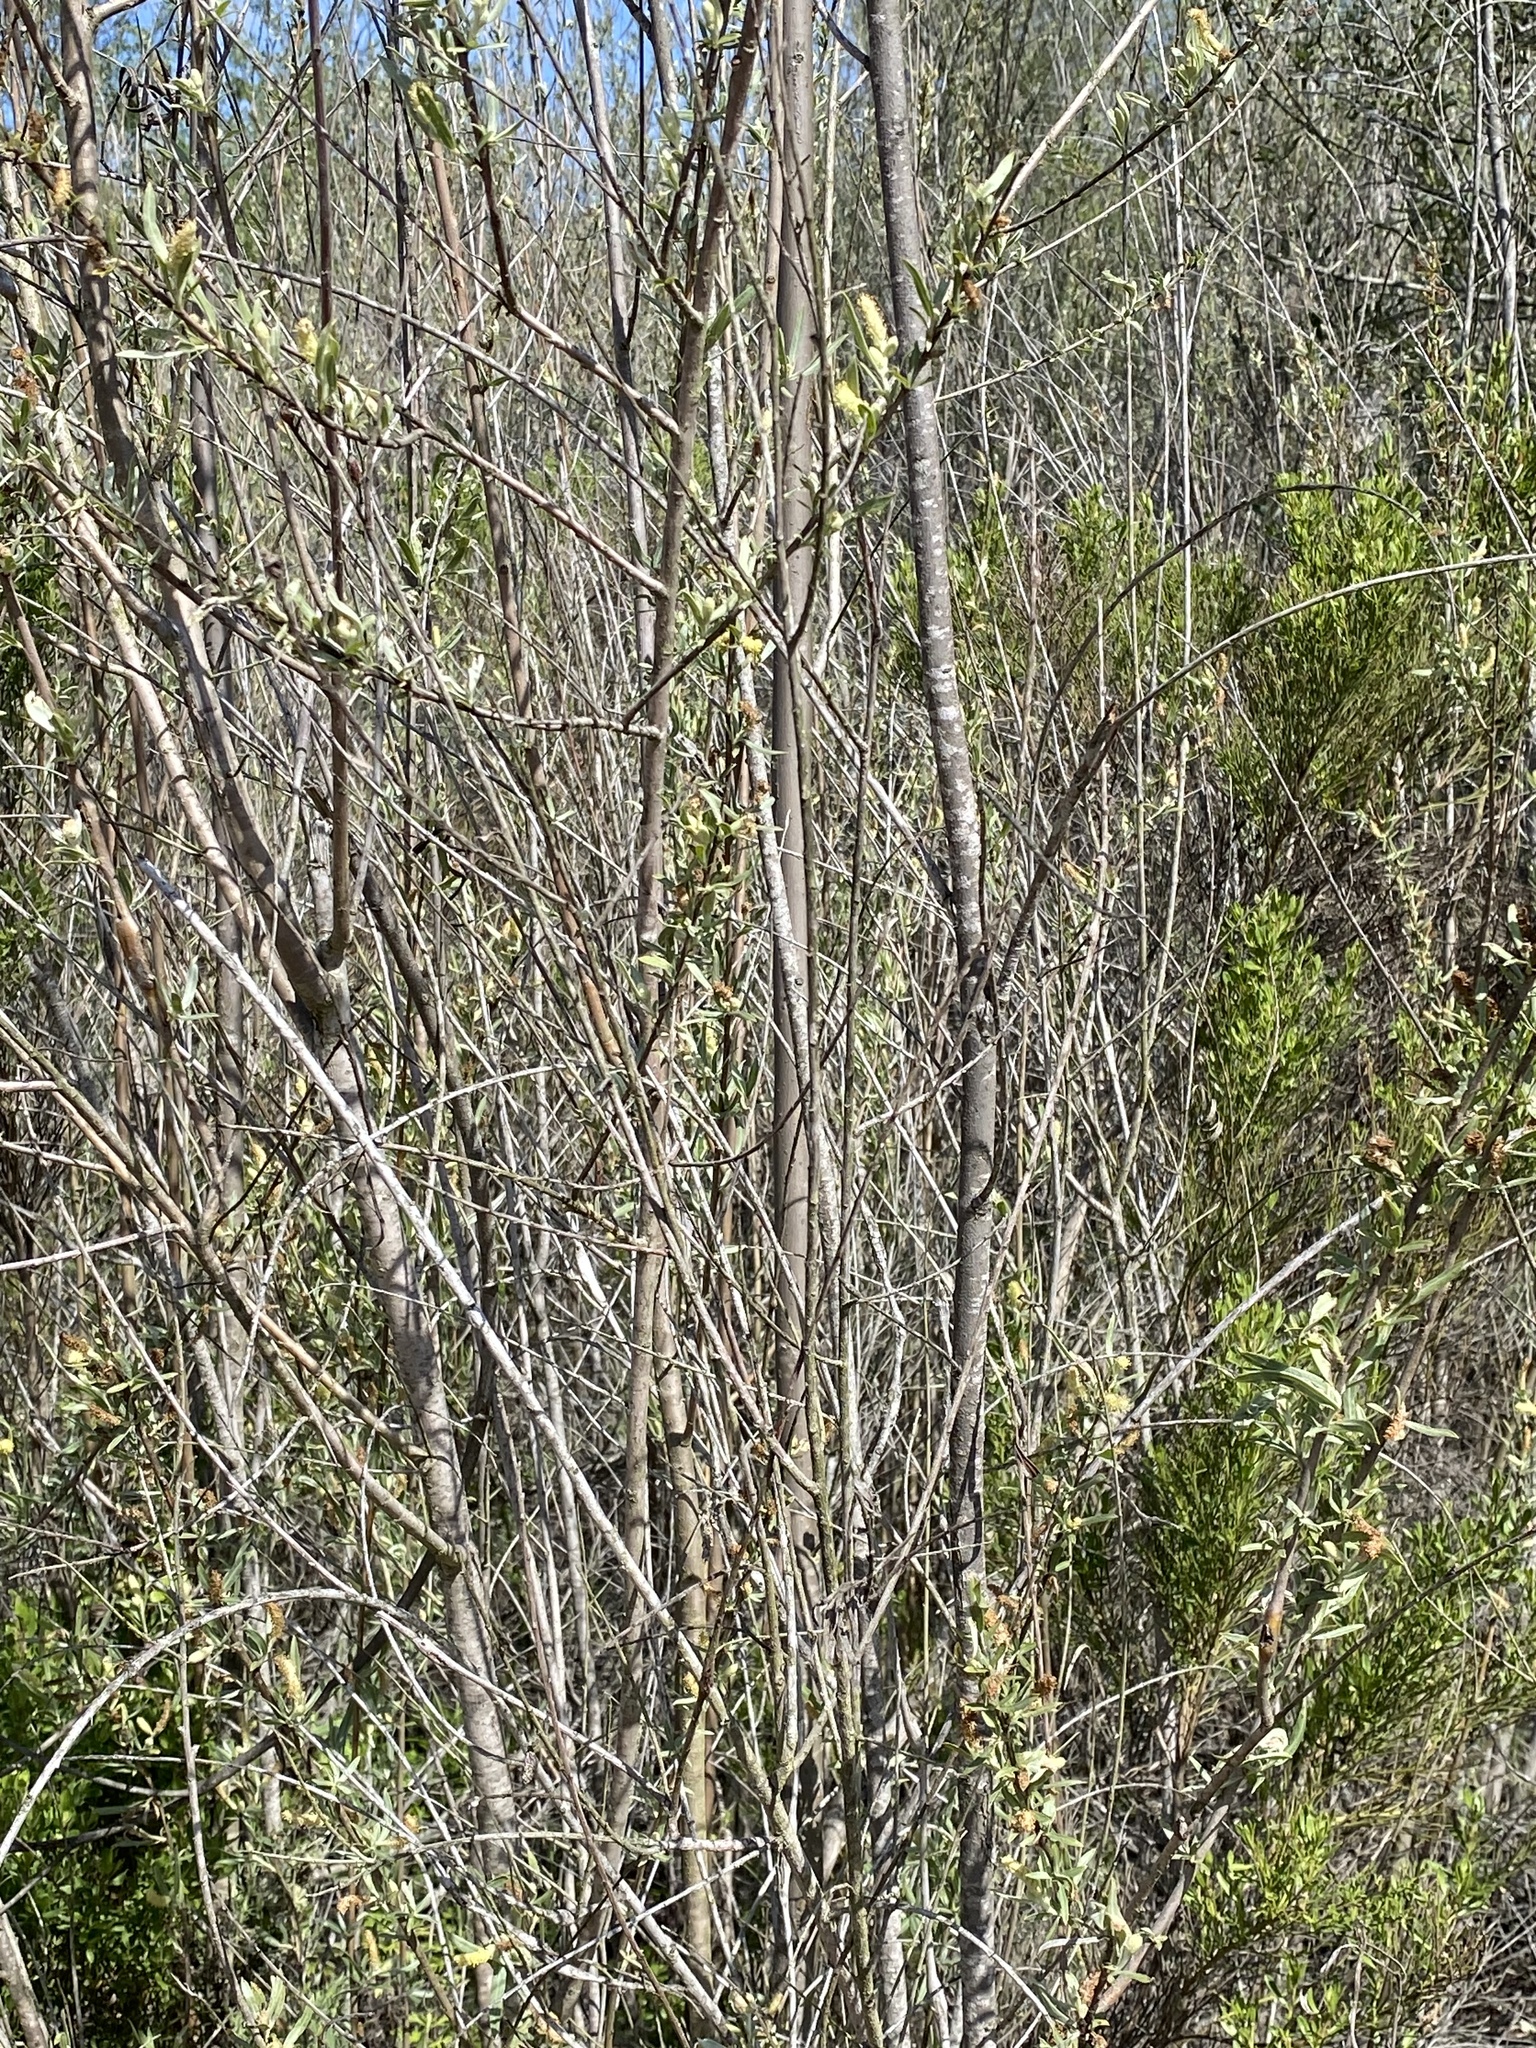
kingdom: Plantae
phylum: Tracheophyta
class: Magnoliopsida
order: Malpighiales
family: Salicaceae
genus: Salix
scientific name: Salix exigua
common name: Coyote willow
